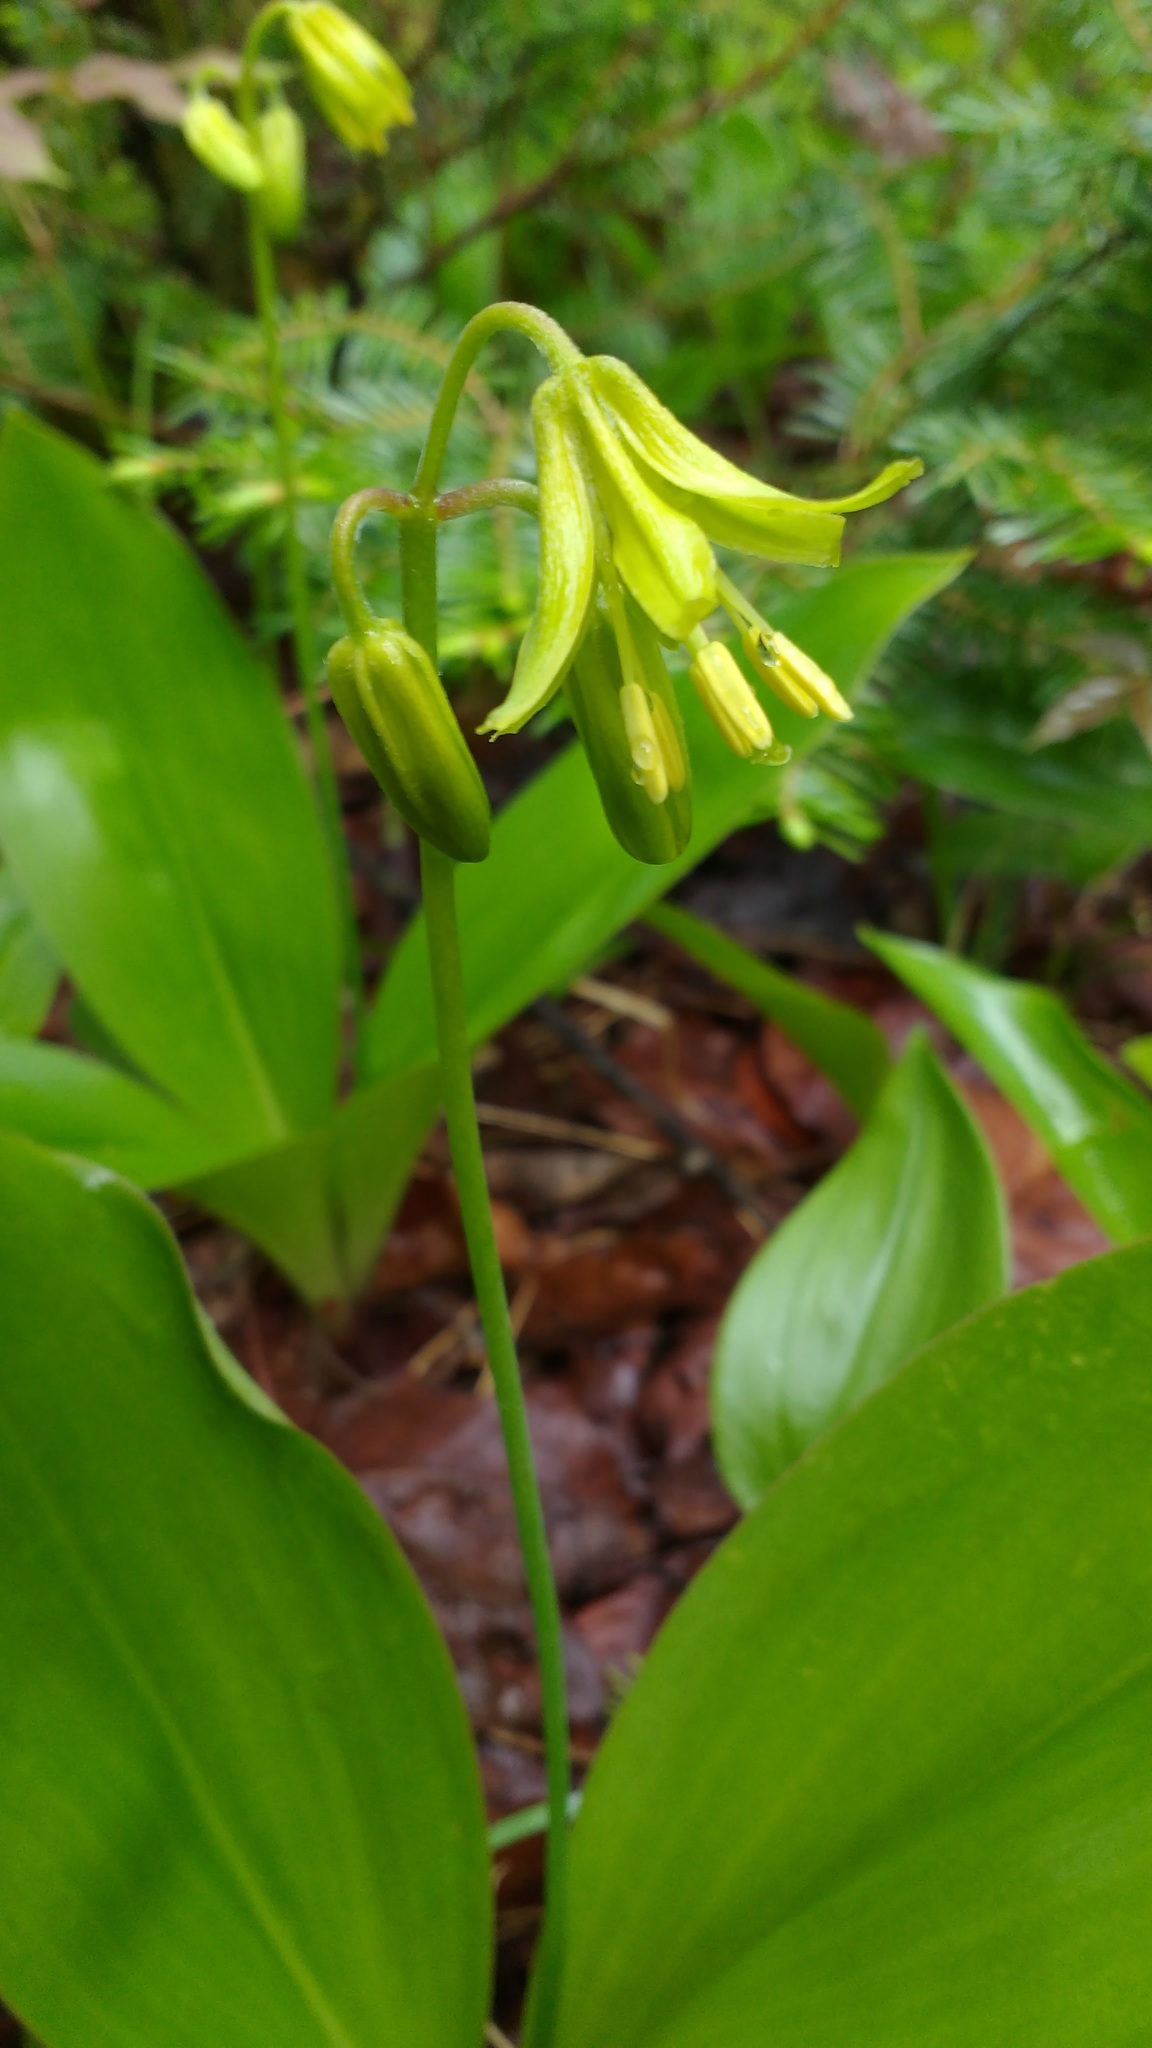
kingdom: Plantae
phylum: Tracheophyta
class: Liliopsida
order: Liliales
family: Liliaceae
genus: Clintonia
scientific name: Clintonia borealis
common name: Yellow clintonia
